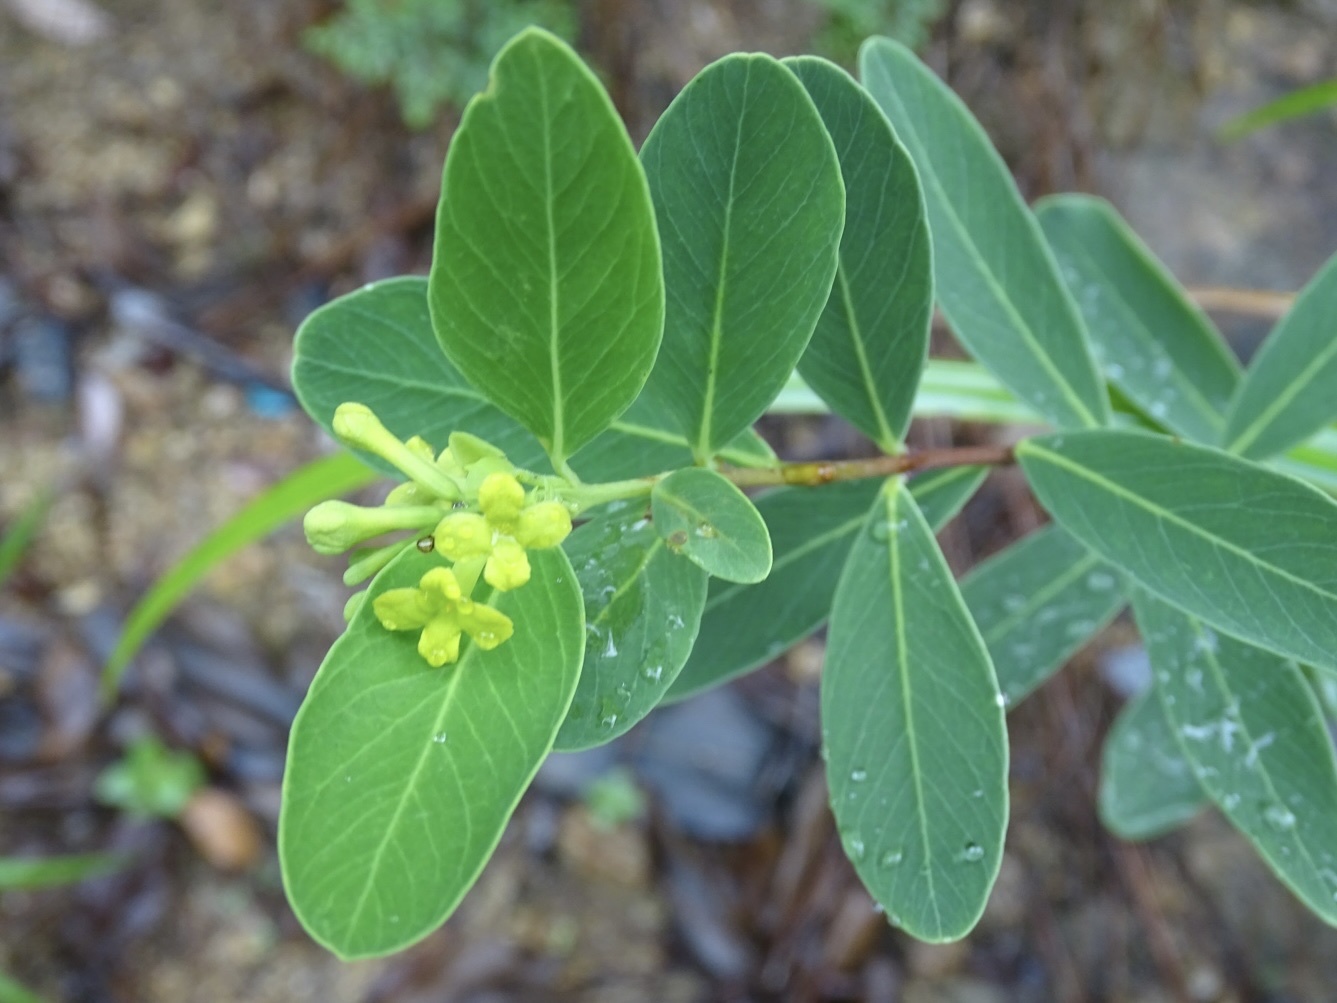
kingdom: Plantae
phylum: Tracheophyta
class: Magnoliopsida
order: Malvales
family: Thymelaeaceae
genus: Wikstroemia
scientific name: Wikstroemia indica
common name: Tiebush
